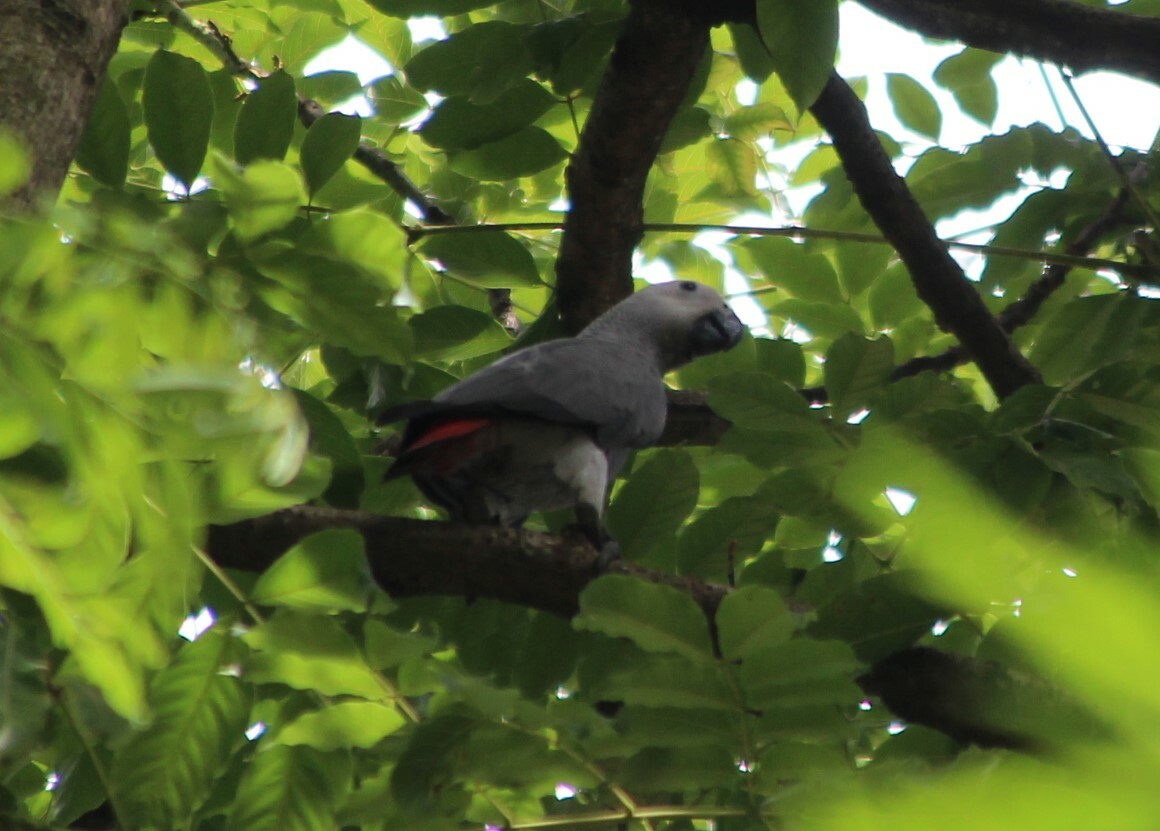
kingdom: Animalia
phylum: Chordata
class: Aves
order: Psittaciformes
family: Psittacidae
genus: Psittacus
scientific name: Psittacus erithacus
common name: Grey parrot
